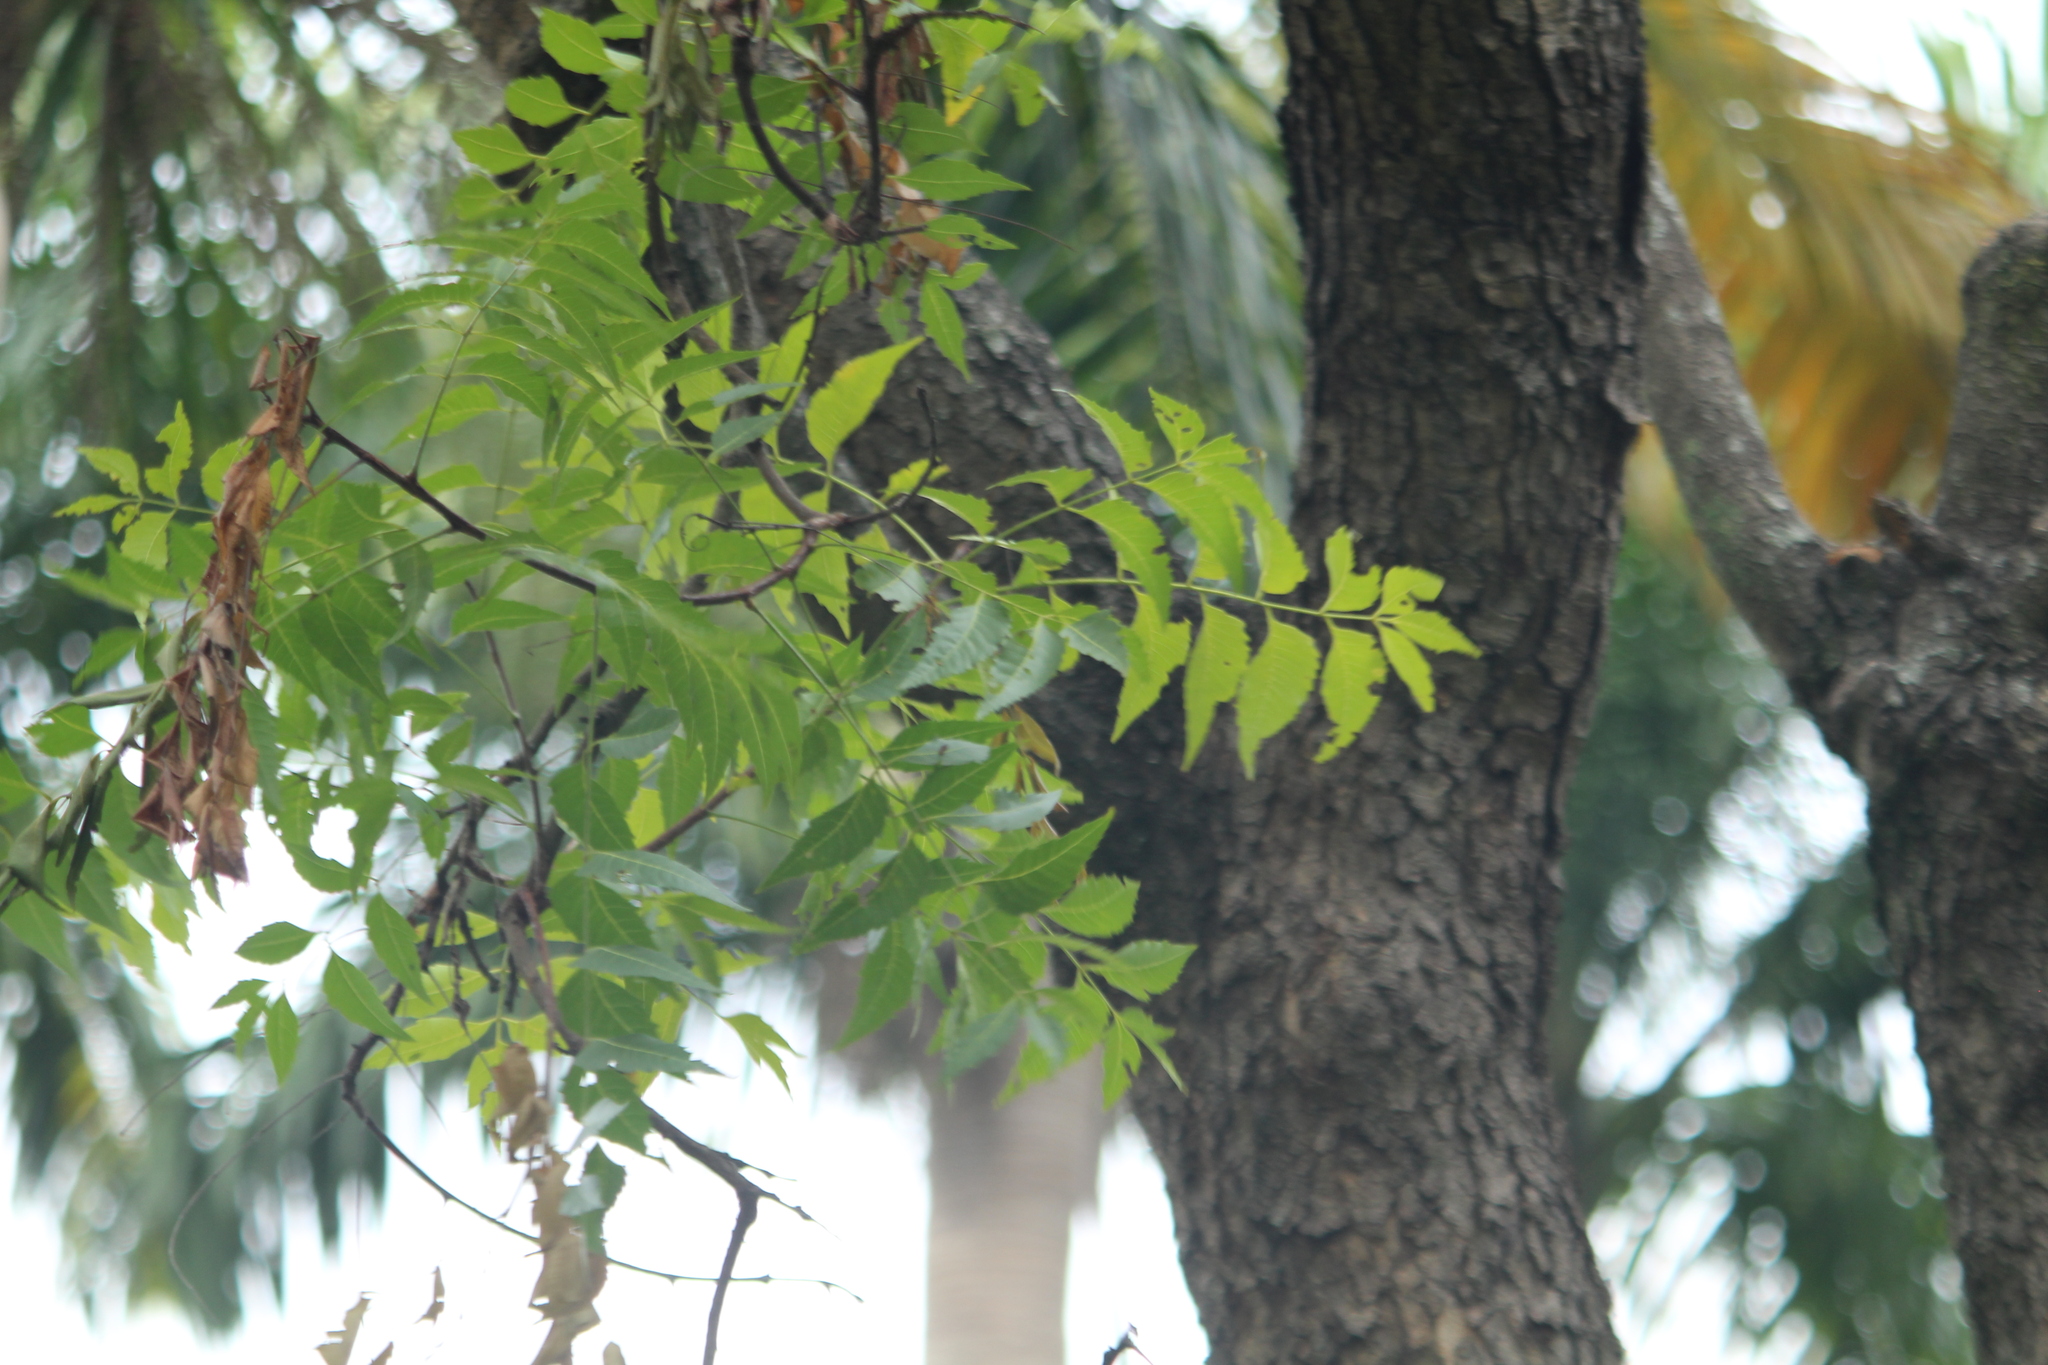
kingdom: Plantae
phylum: Tracheophyta
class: Magnoliopsida
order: Sapindales
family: Meliaceae
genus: Azadirachta
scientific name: Azadirachta indica
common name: Neem
